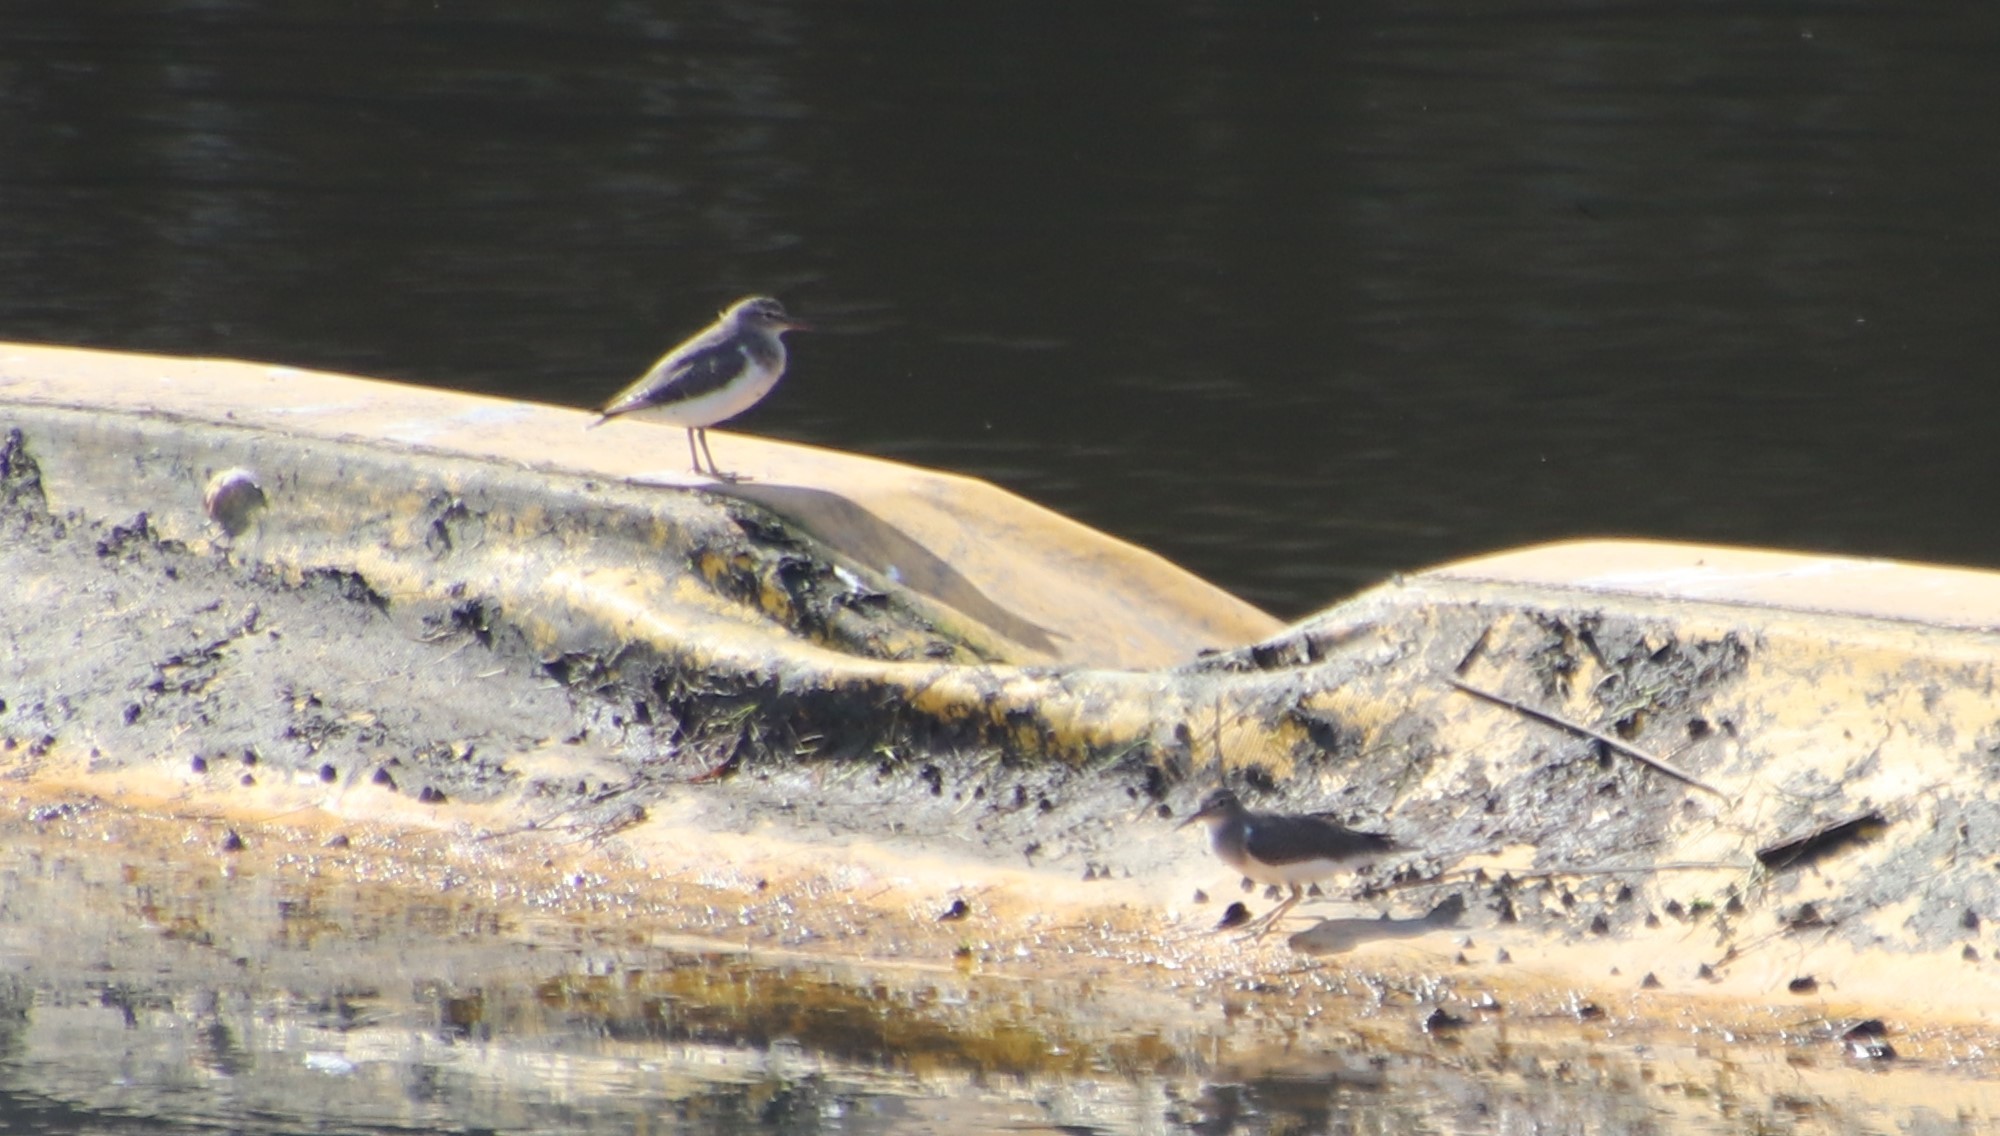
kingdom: Animalia
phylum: Chordata
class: Aves
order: Charadriiformes
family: Scolopacidae
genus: Actitis
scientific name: Actitis macularius
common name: Spotted sandpiper
